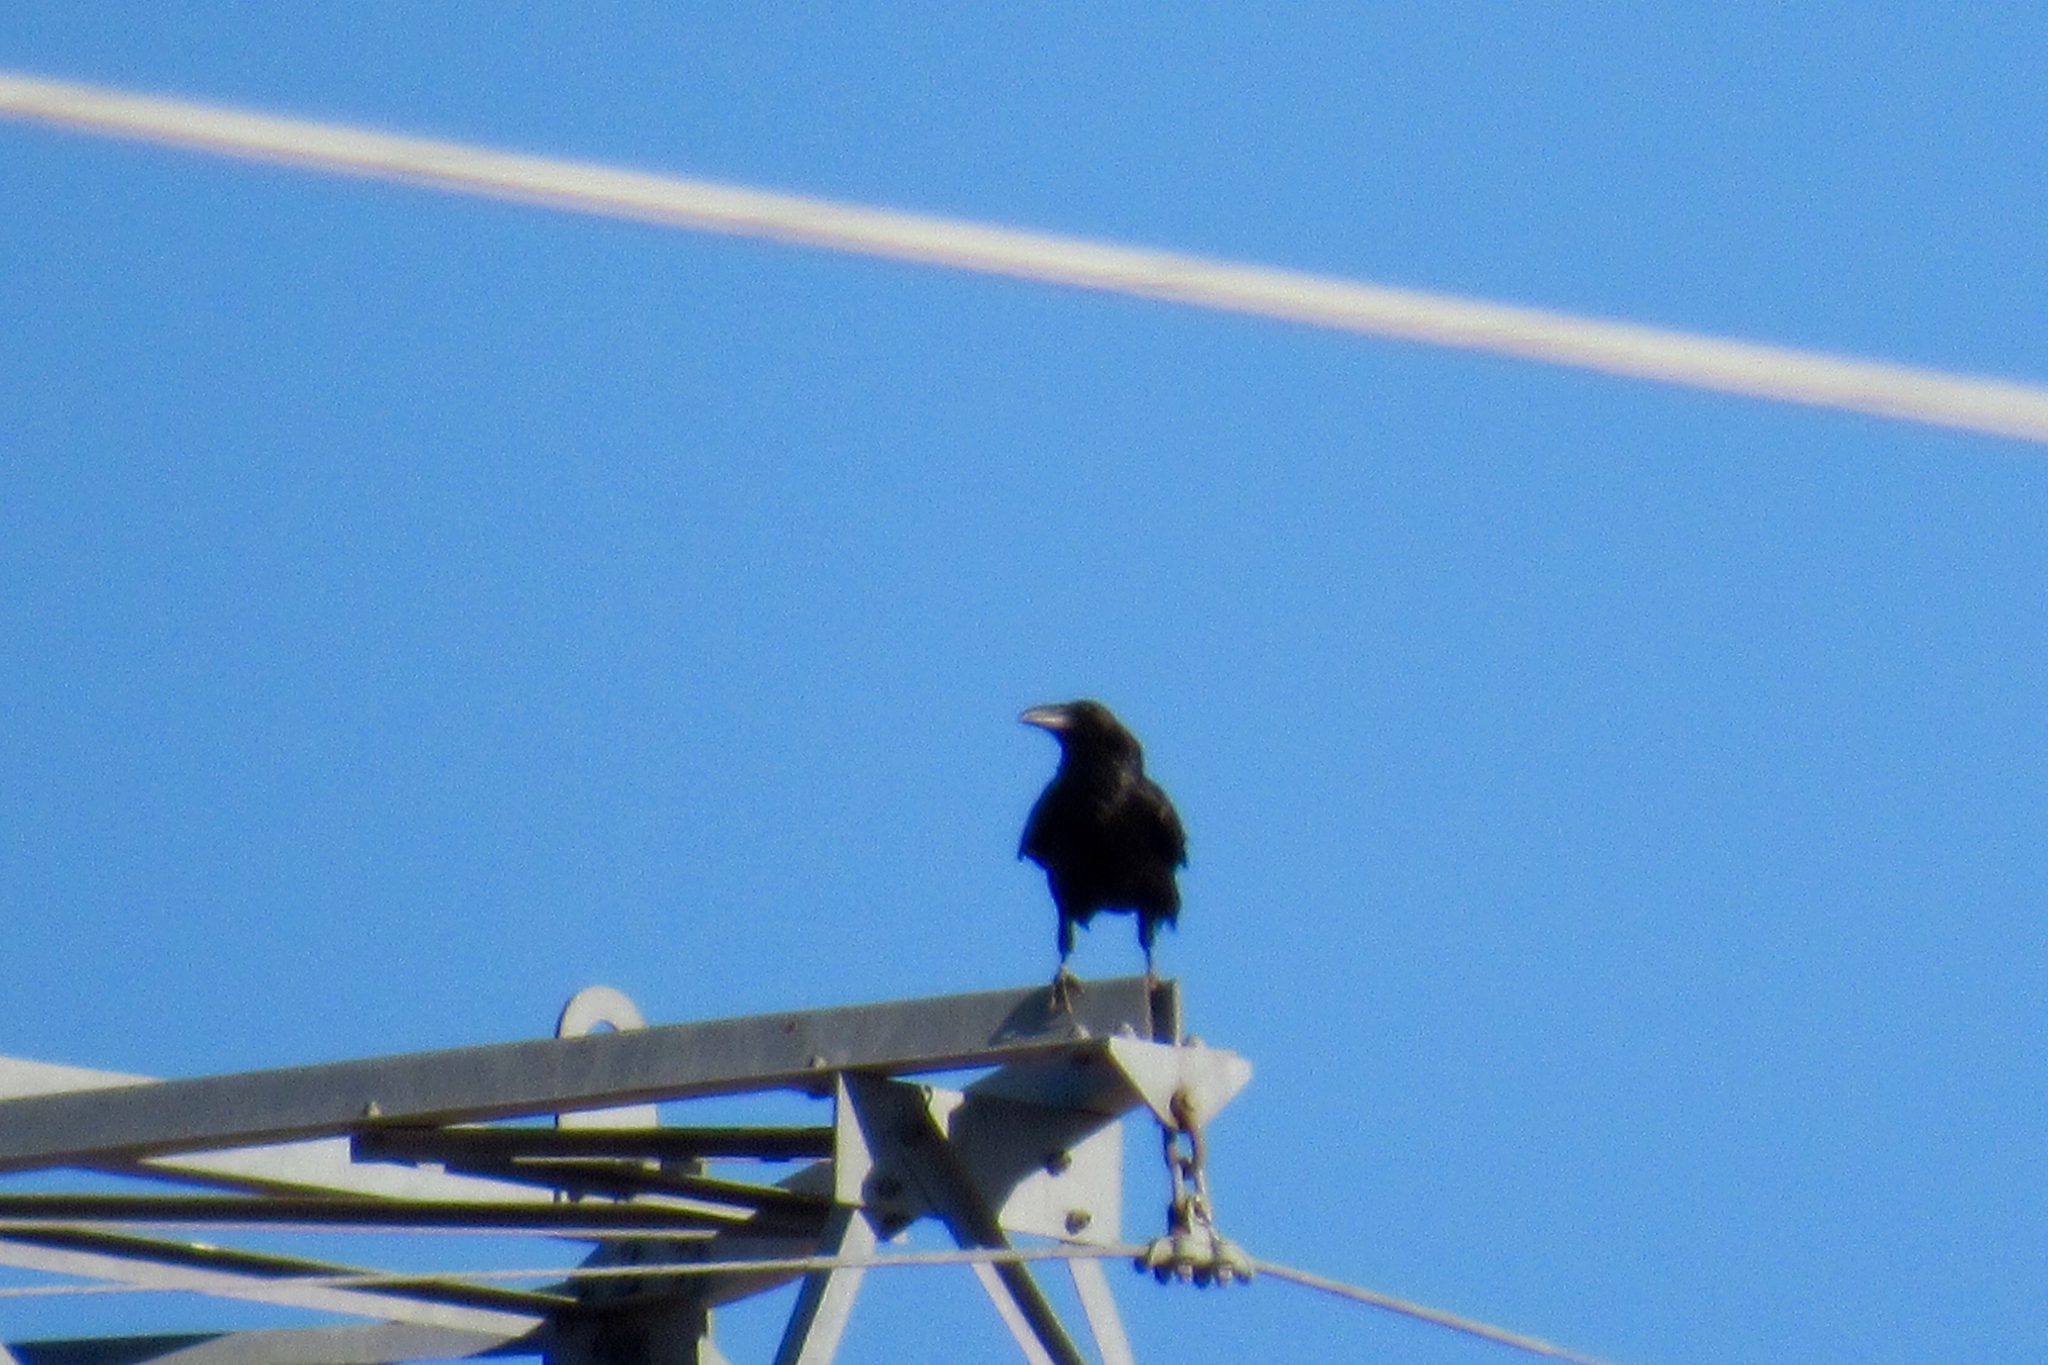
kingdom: Animalia
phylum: Chordata
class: Aves
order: Passeriformes
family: Corvidae
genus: Corvus
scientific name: Corvus corax
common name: Common raven
